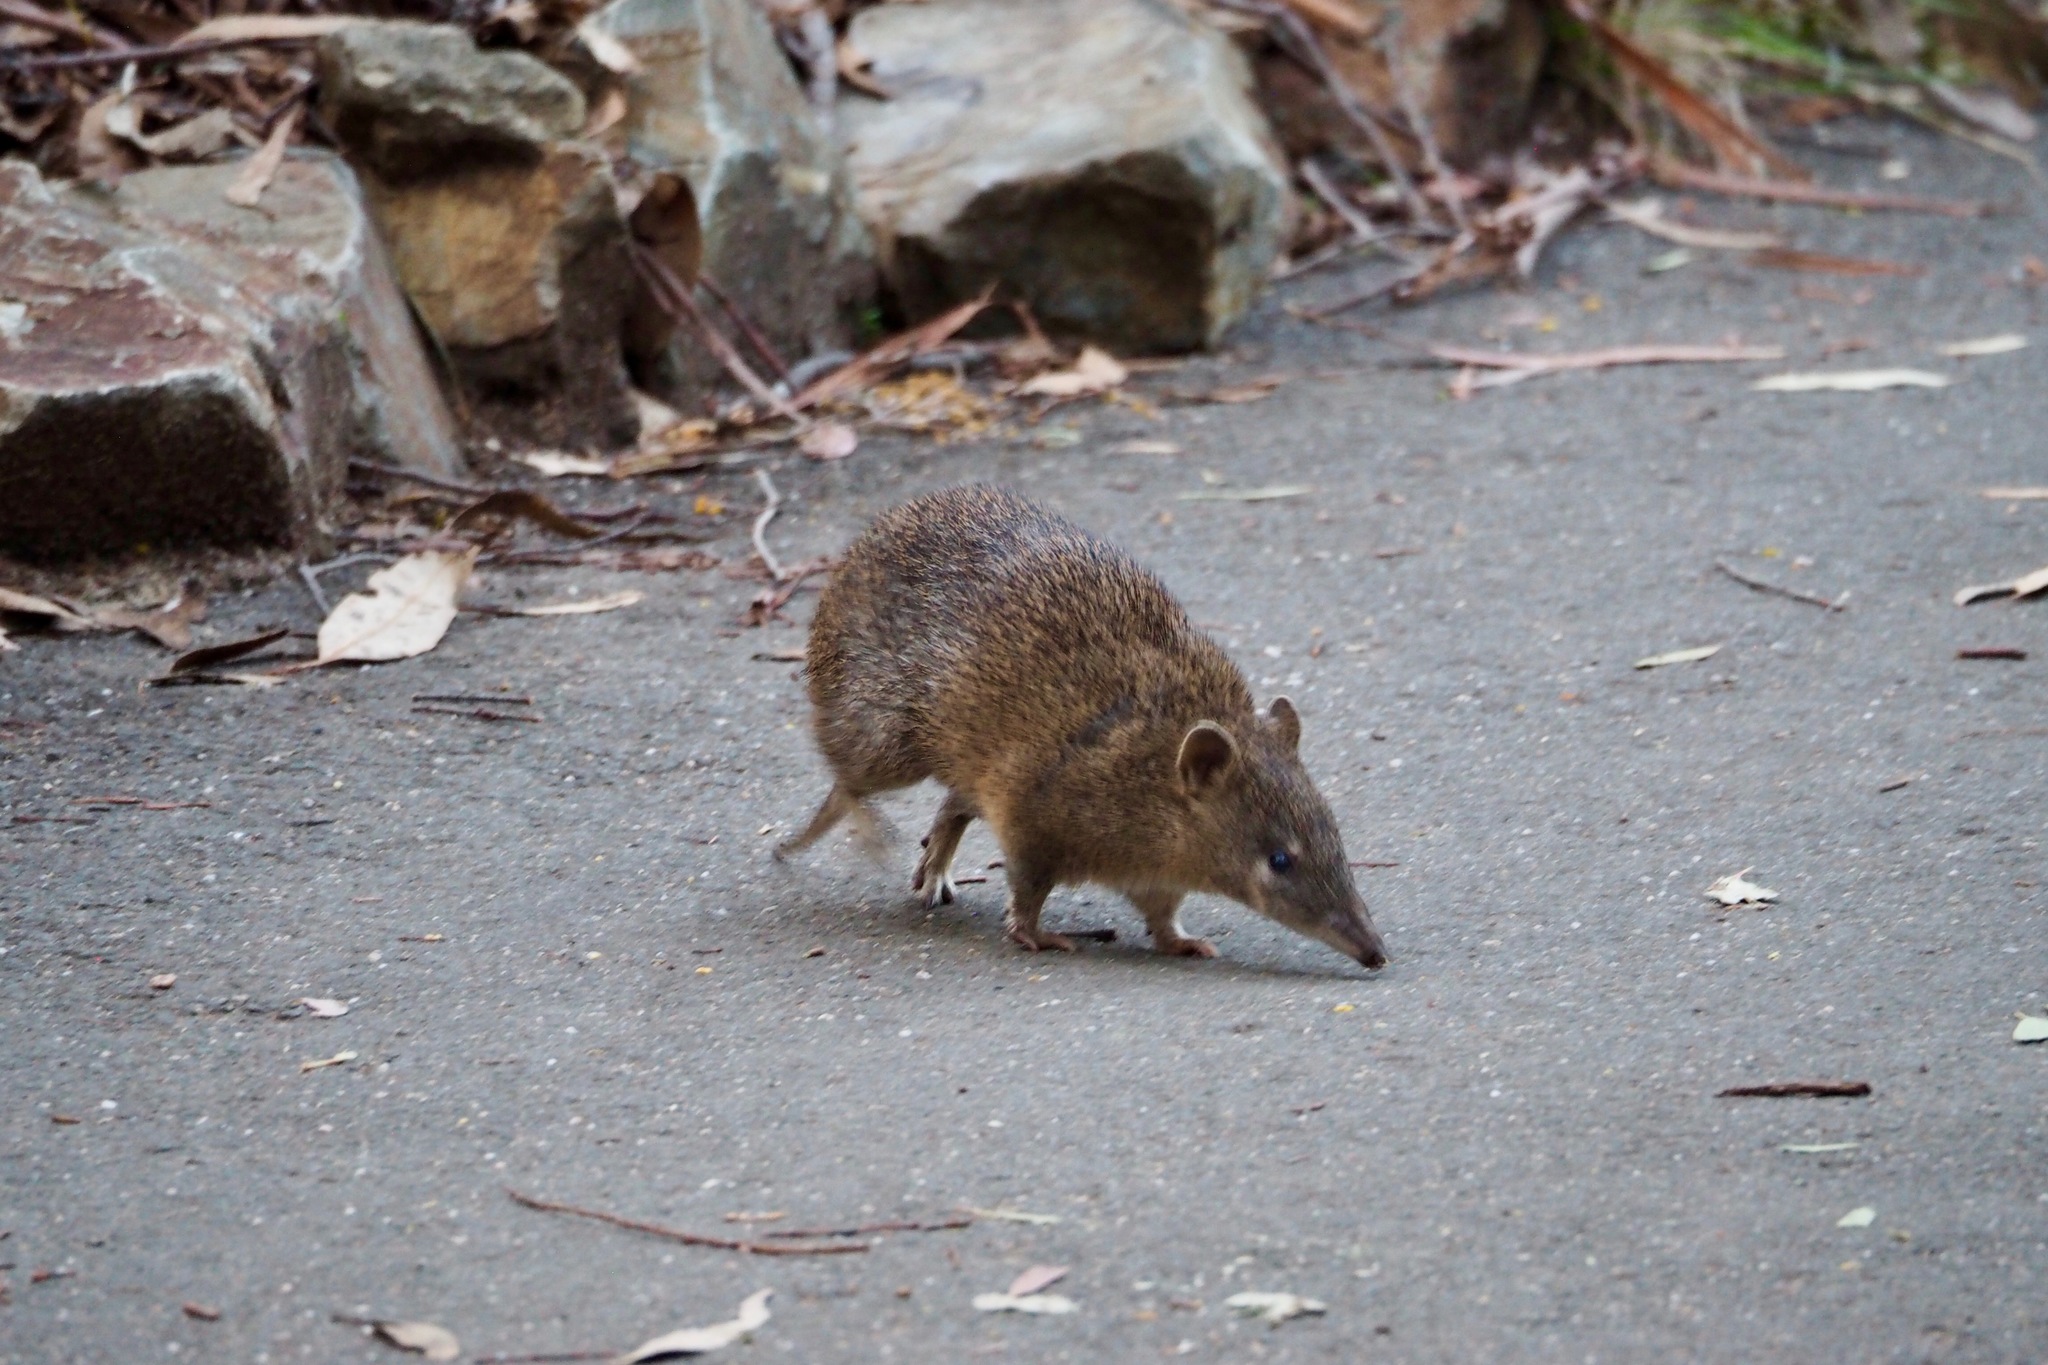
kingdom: Animalia
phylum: Chordata
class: Mammalia
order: Peramelemorphia
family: Peramelidae
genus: Isoodon
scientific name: Isoodon obesulus
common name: Southern brown bandicoot
